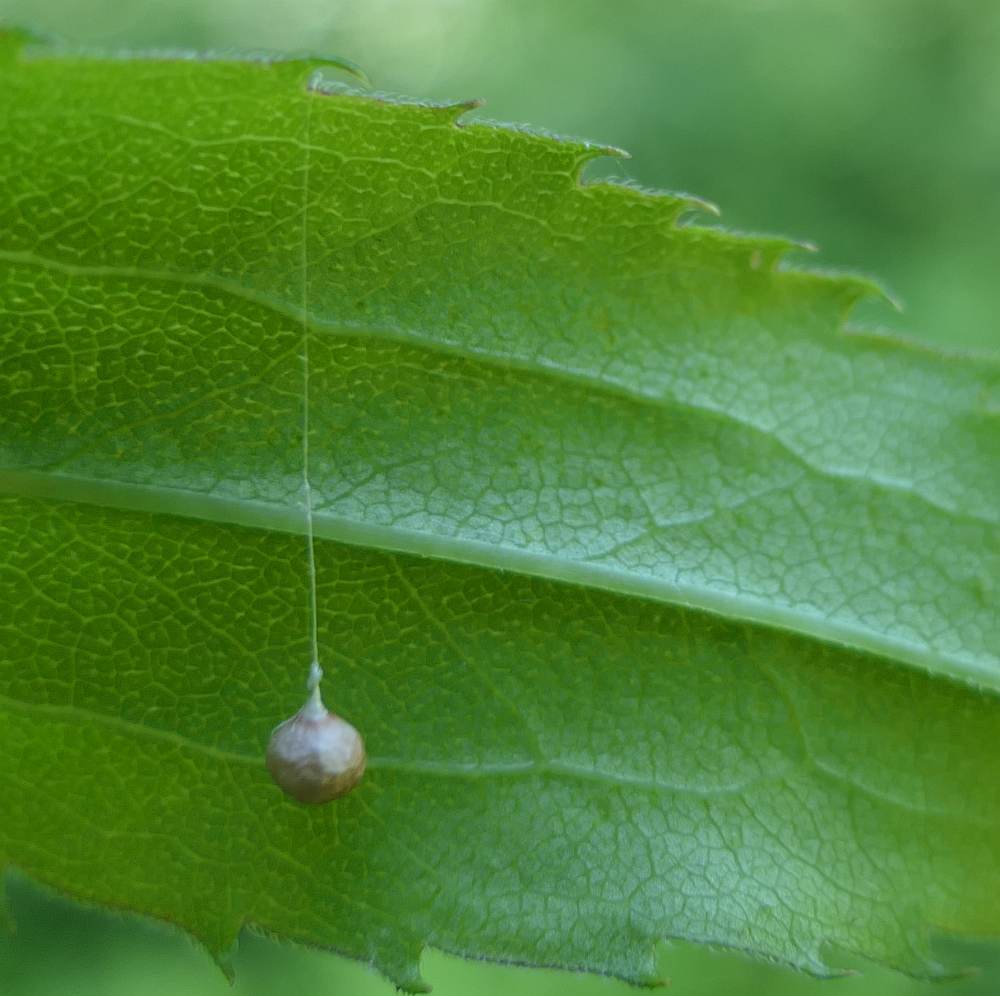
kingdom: Animalia
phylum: Arthropoda
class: Arachnida
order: Araneae
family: Theridiosomatidae
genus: Theridiosoma
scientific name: Theridiosoma gemmosum
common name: Ray spider
